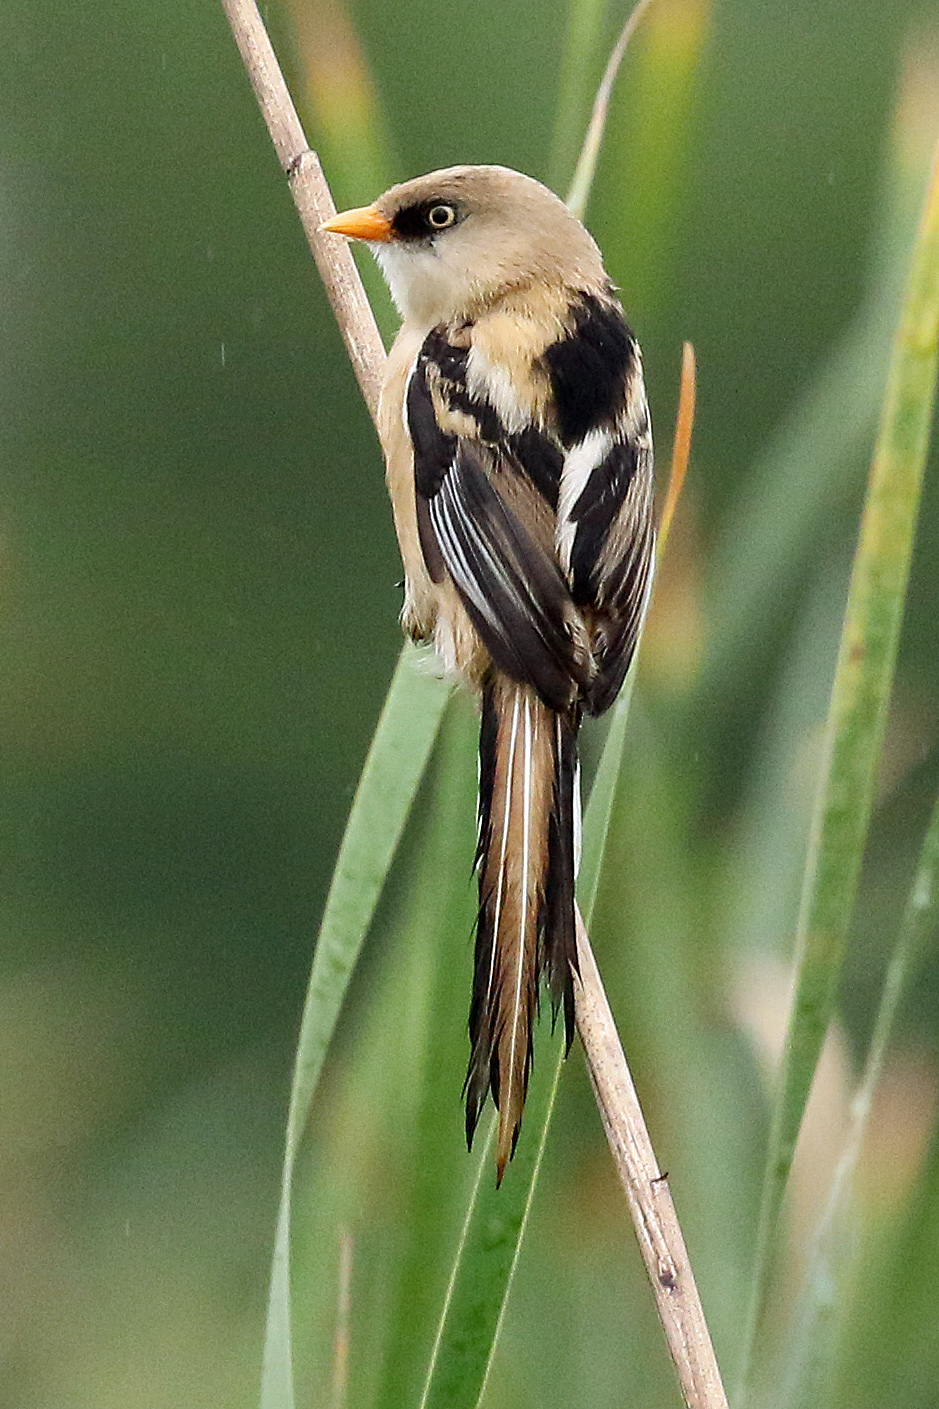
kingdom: Animalia
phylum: Chordata
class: Aves
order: Passeriformes
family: Panuridae
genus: Panurus
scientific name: Panurus biarmicus
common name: Bearded reedling
